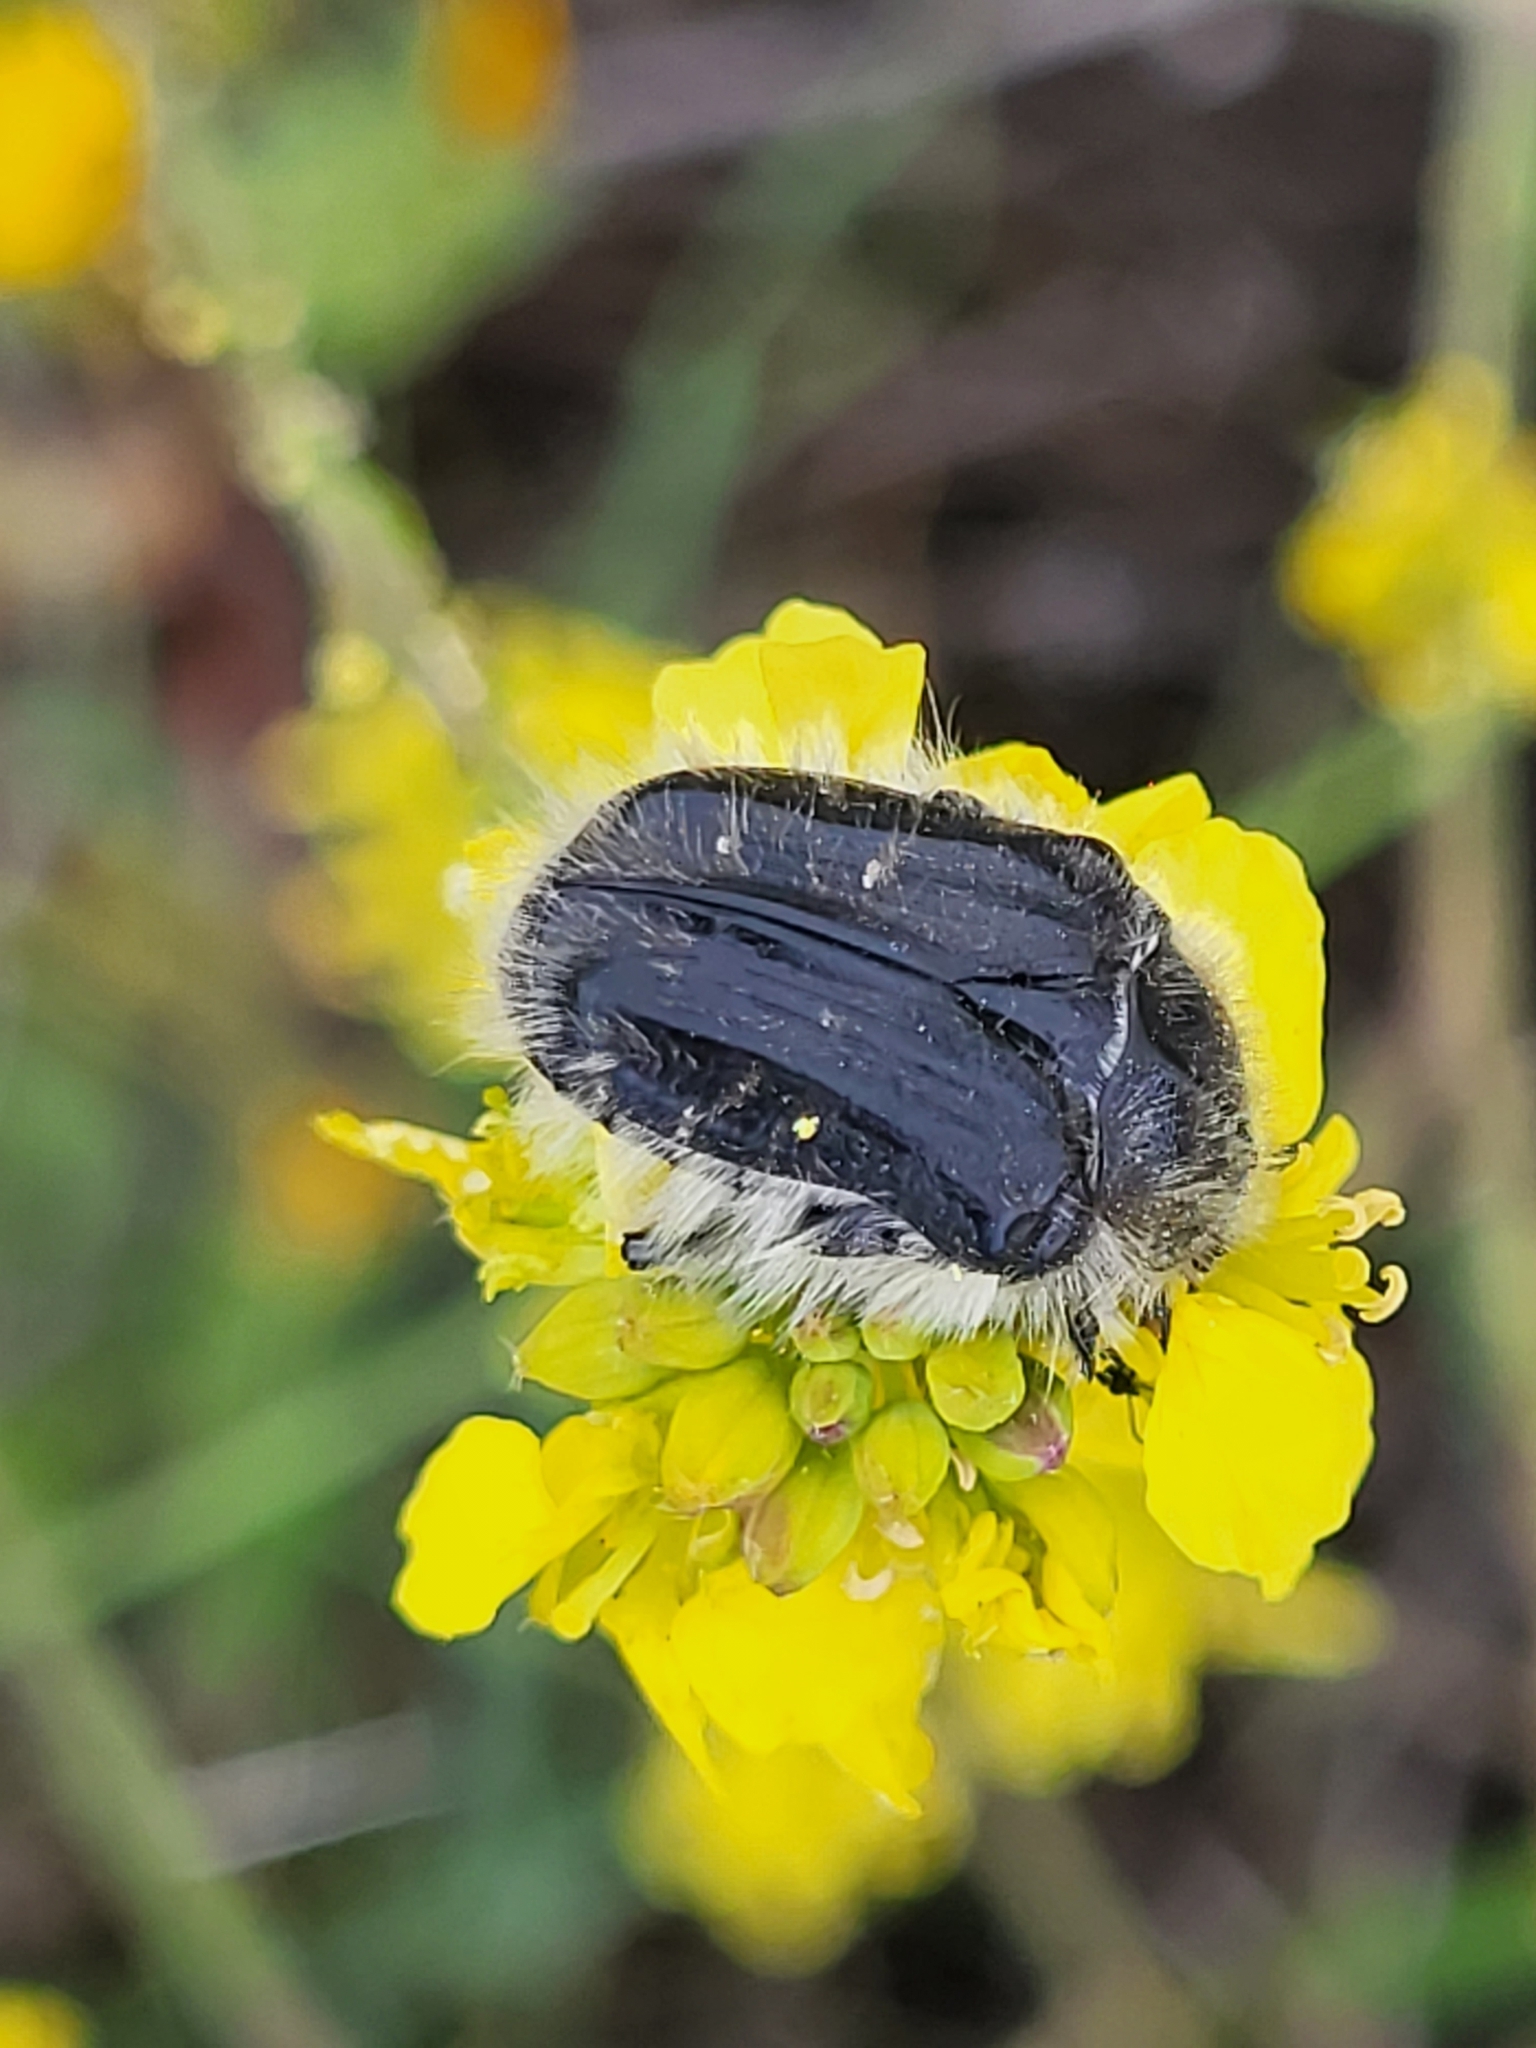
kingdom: Animalia
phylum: Arthropoda
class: Insecta
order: Coleoptera
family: Scarabaeidae
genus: Tropinota
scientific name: Tropinota squalida
